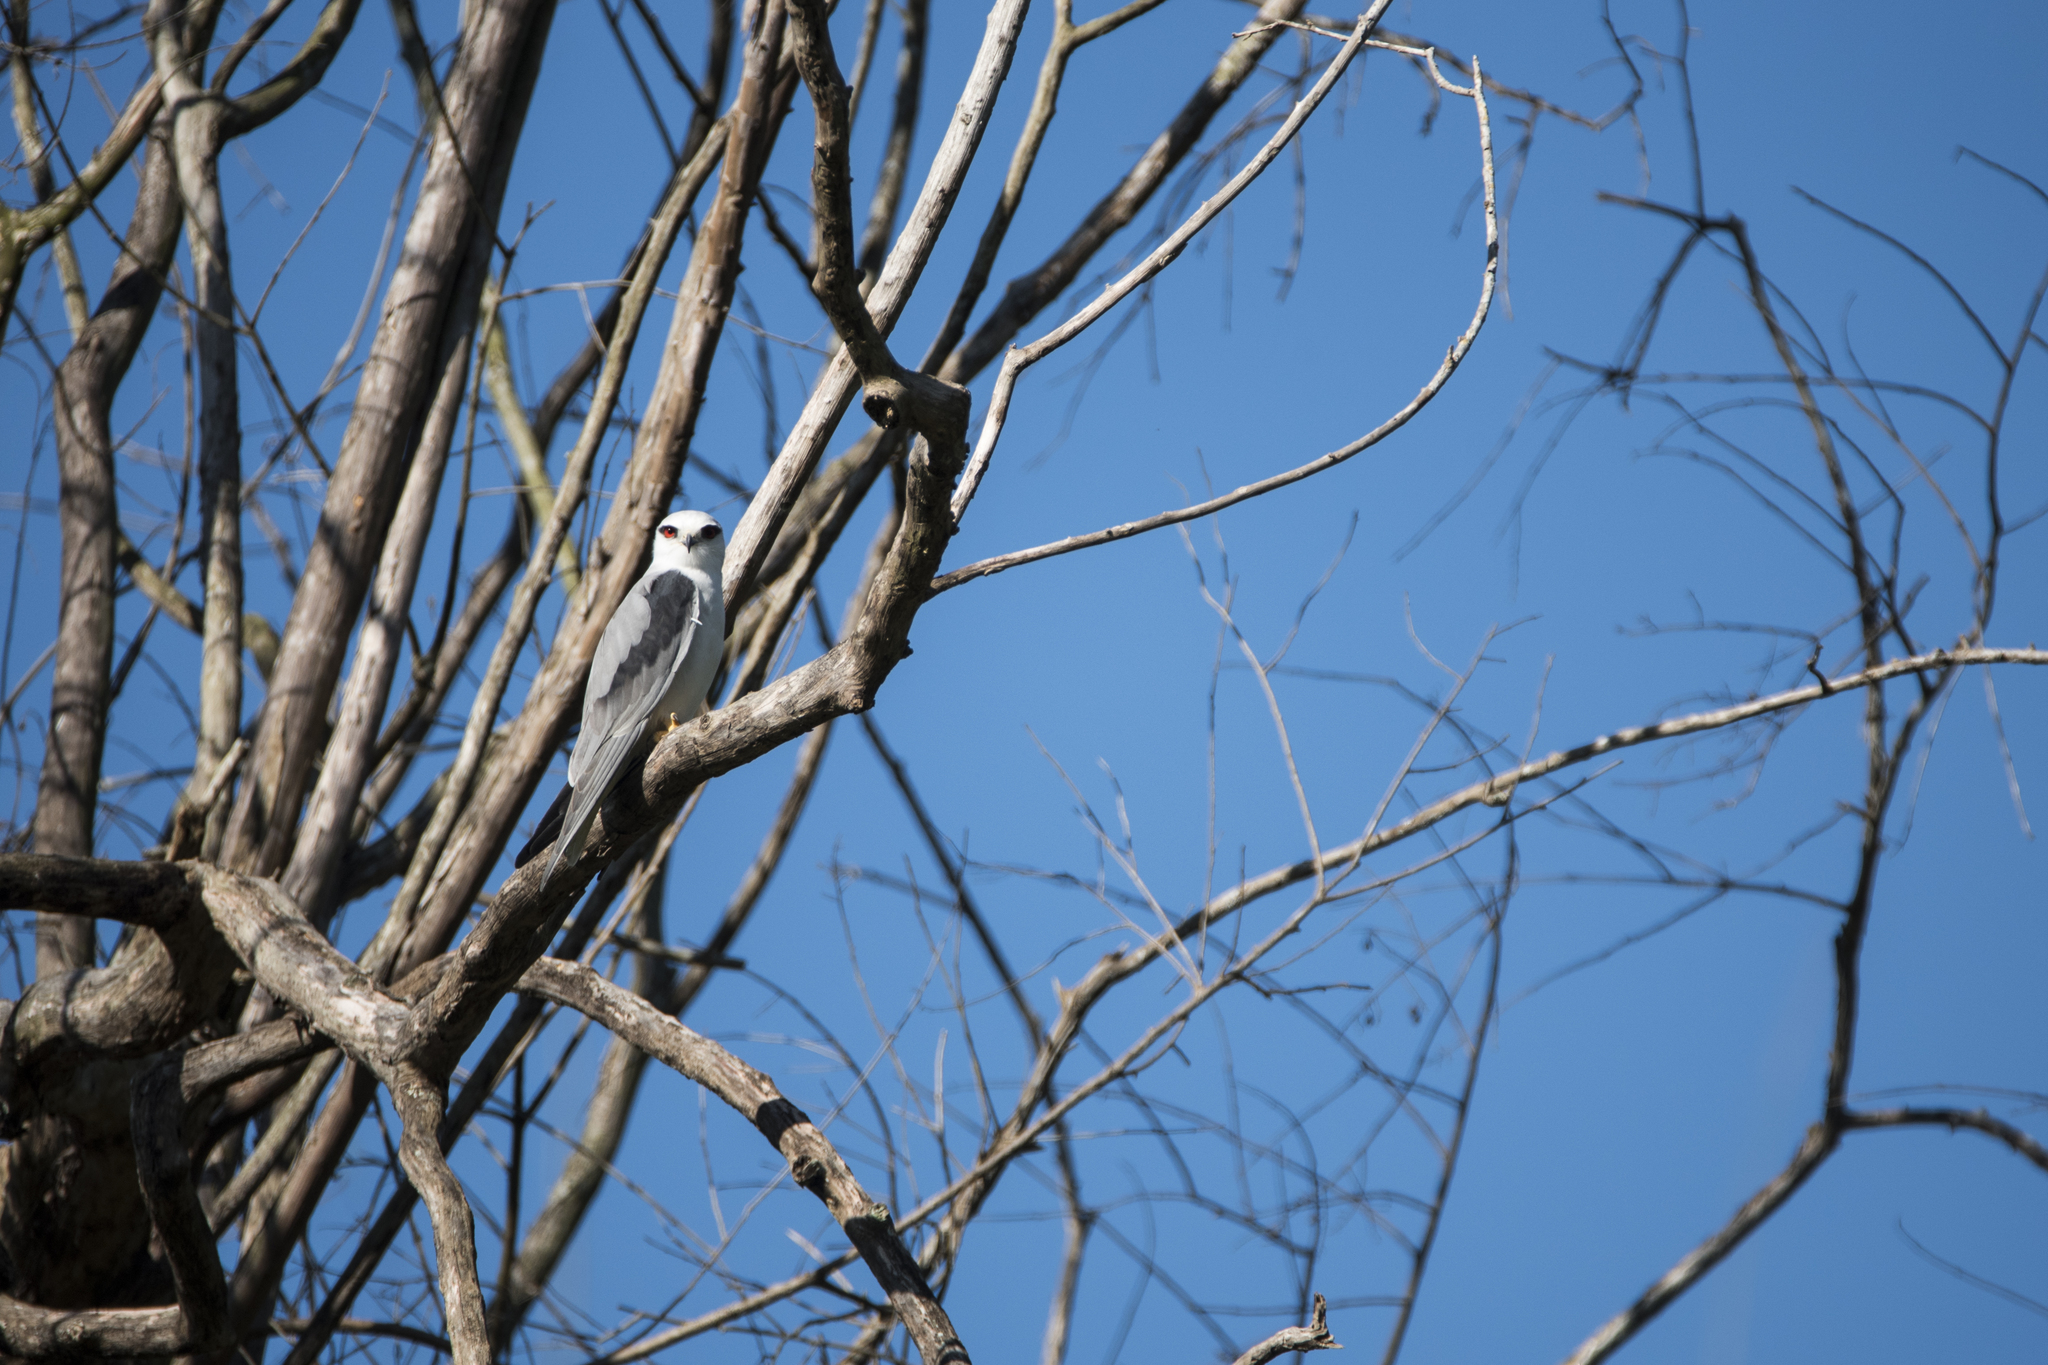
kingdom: Animalia
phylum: Chordata
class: Aves
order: Accipitriformes
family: Accipitridae
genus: Elanus
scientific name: Elanus caeruleus
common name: Black-winged kite
